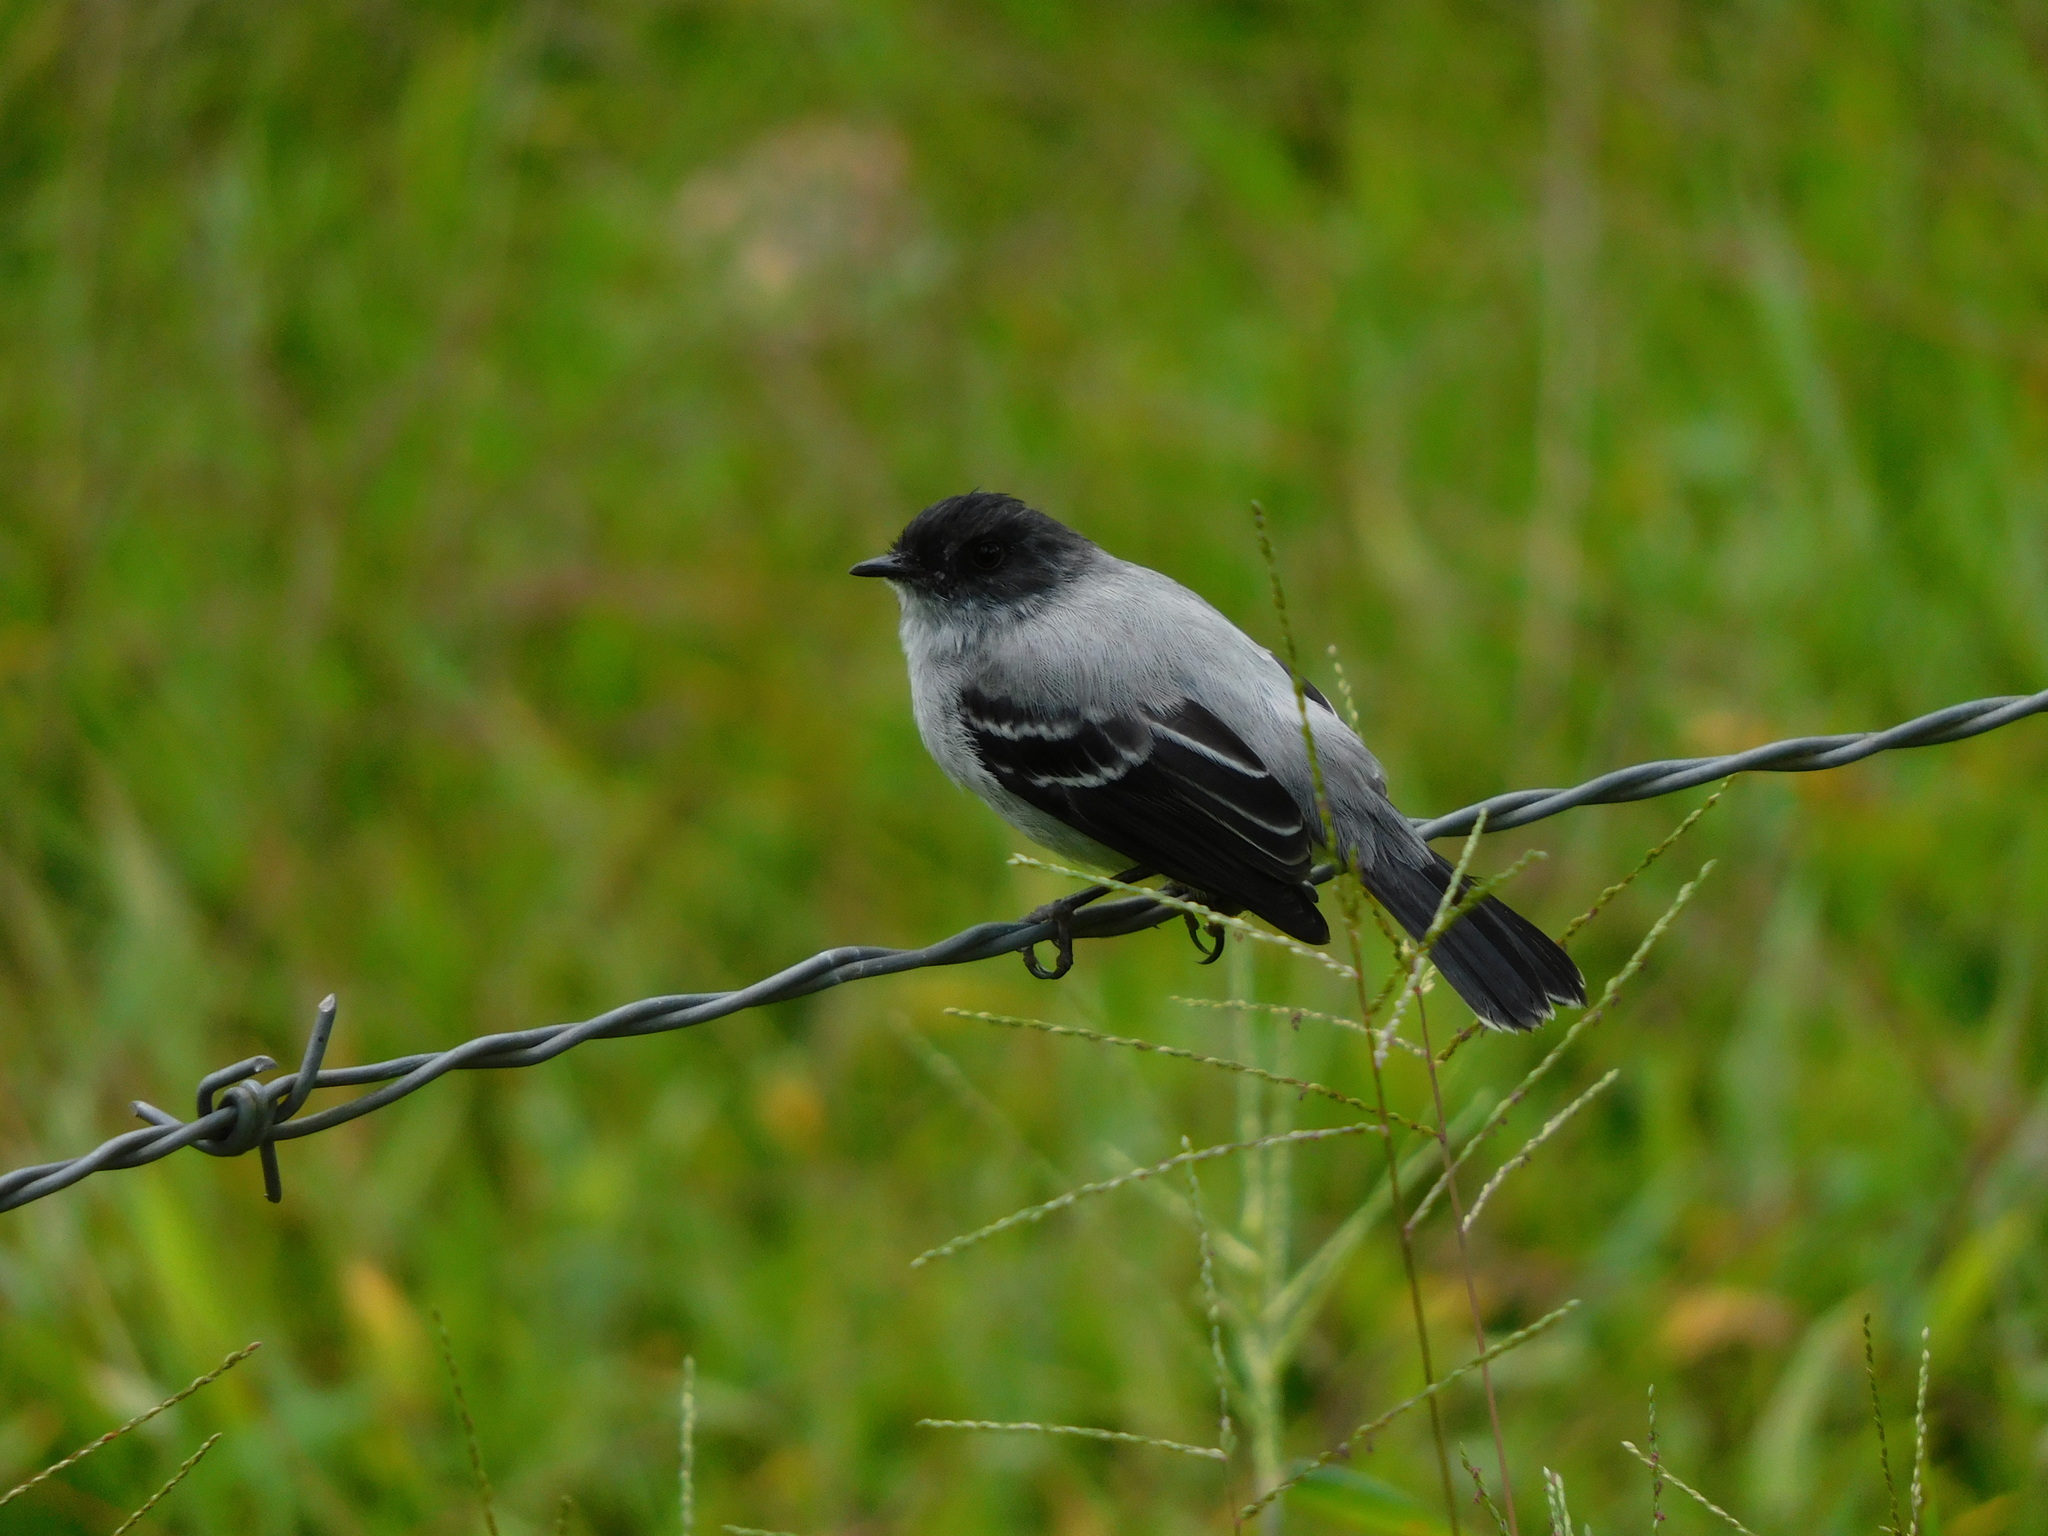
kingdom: Animalia
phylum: Chordata
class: Aves
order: Passeriformes
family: Tyrannidae
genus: Serpophaga
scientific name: Serpophaga cinerea
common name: Torrent tyrannulet
